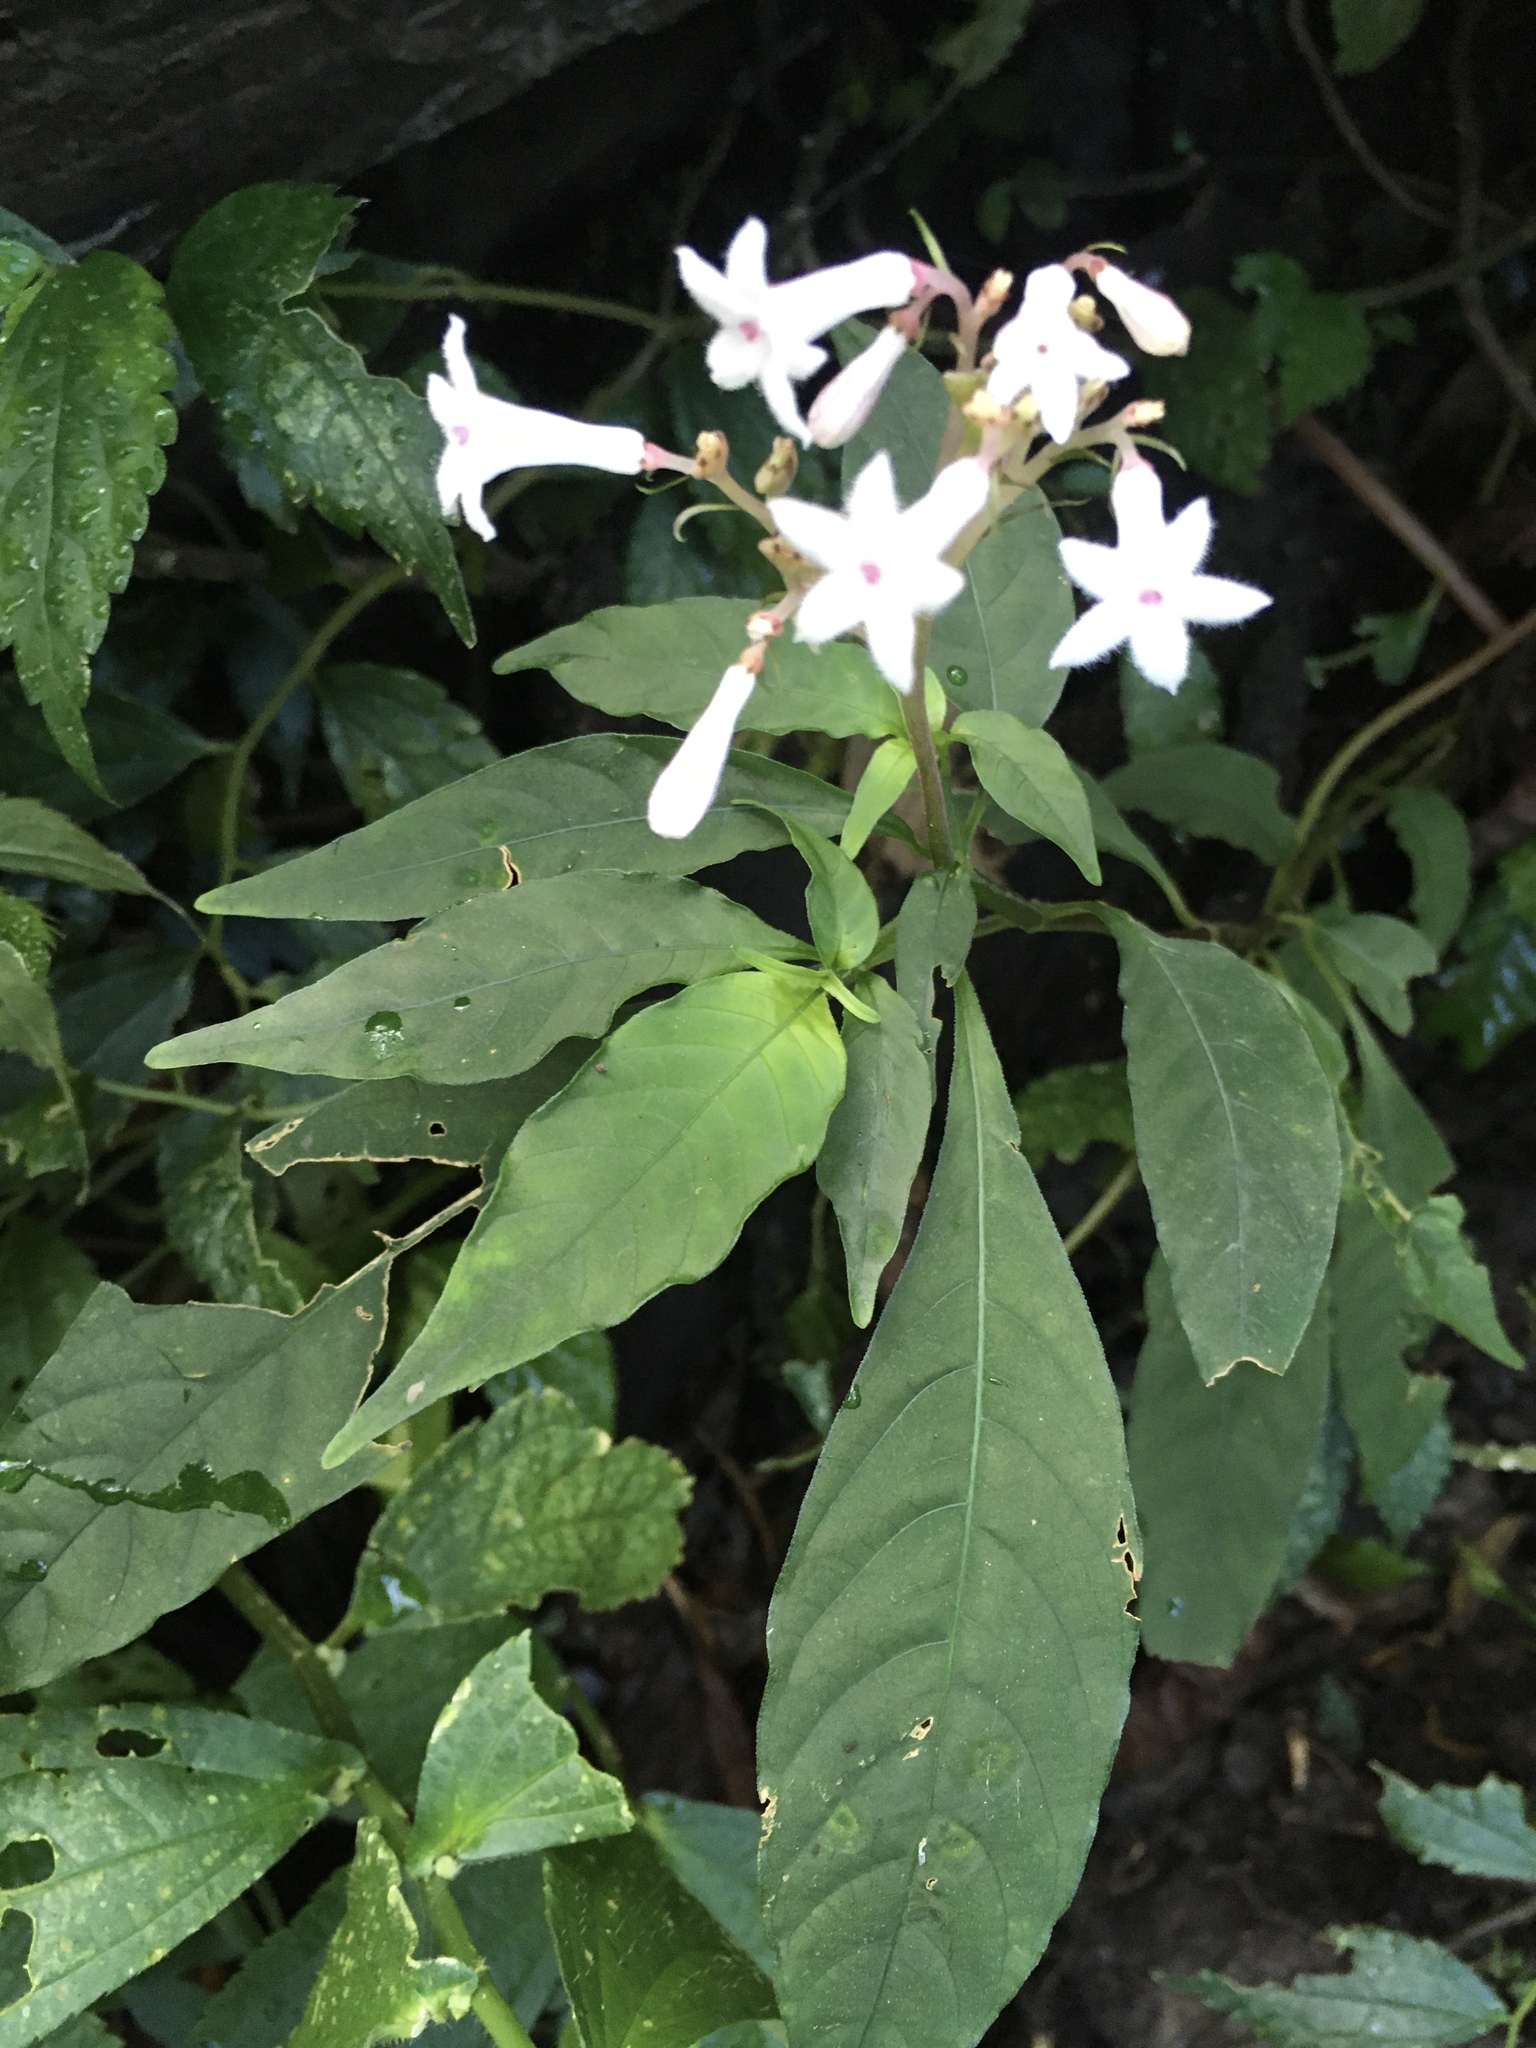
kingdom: Plantae
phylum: Tracheophyta
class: Magnoliopsida
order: Gentianales
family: Rubiaceae
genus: Ophiorrhiza
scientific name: Ophiorrhiza japonica
